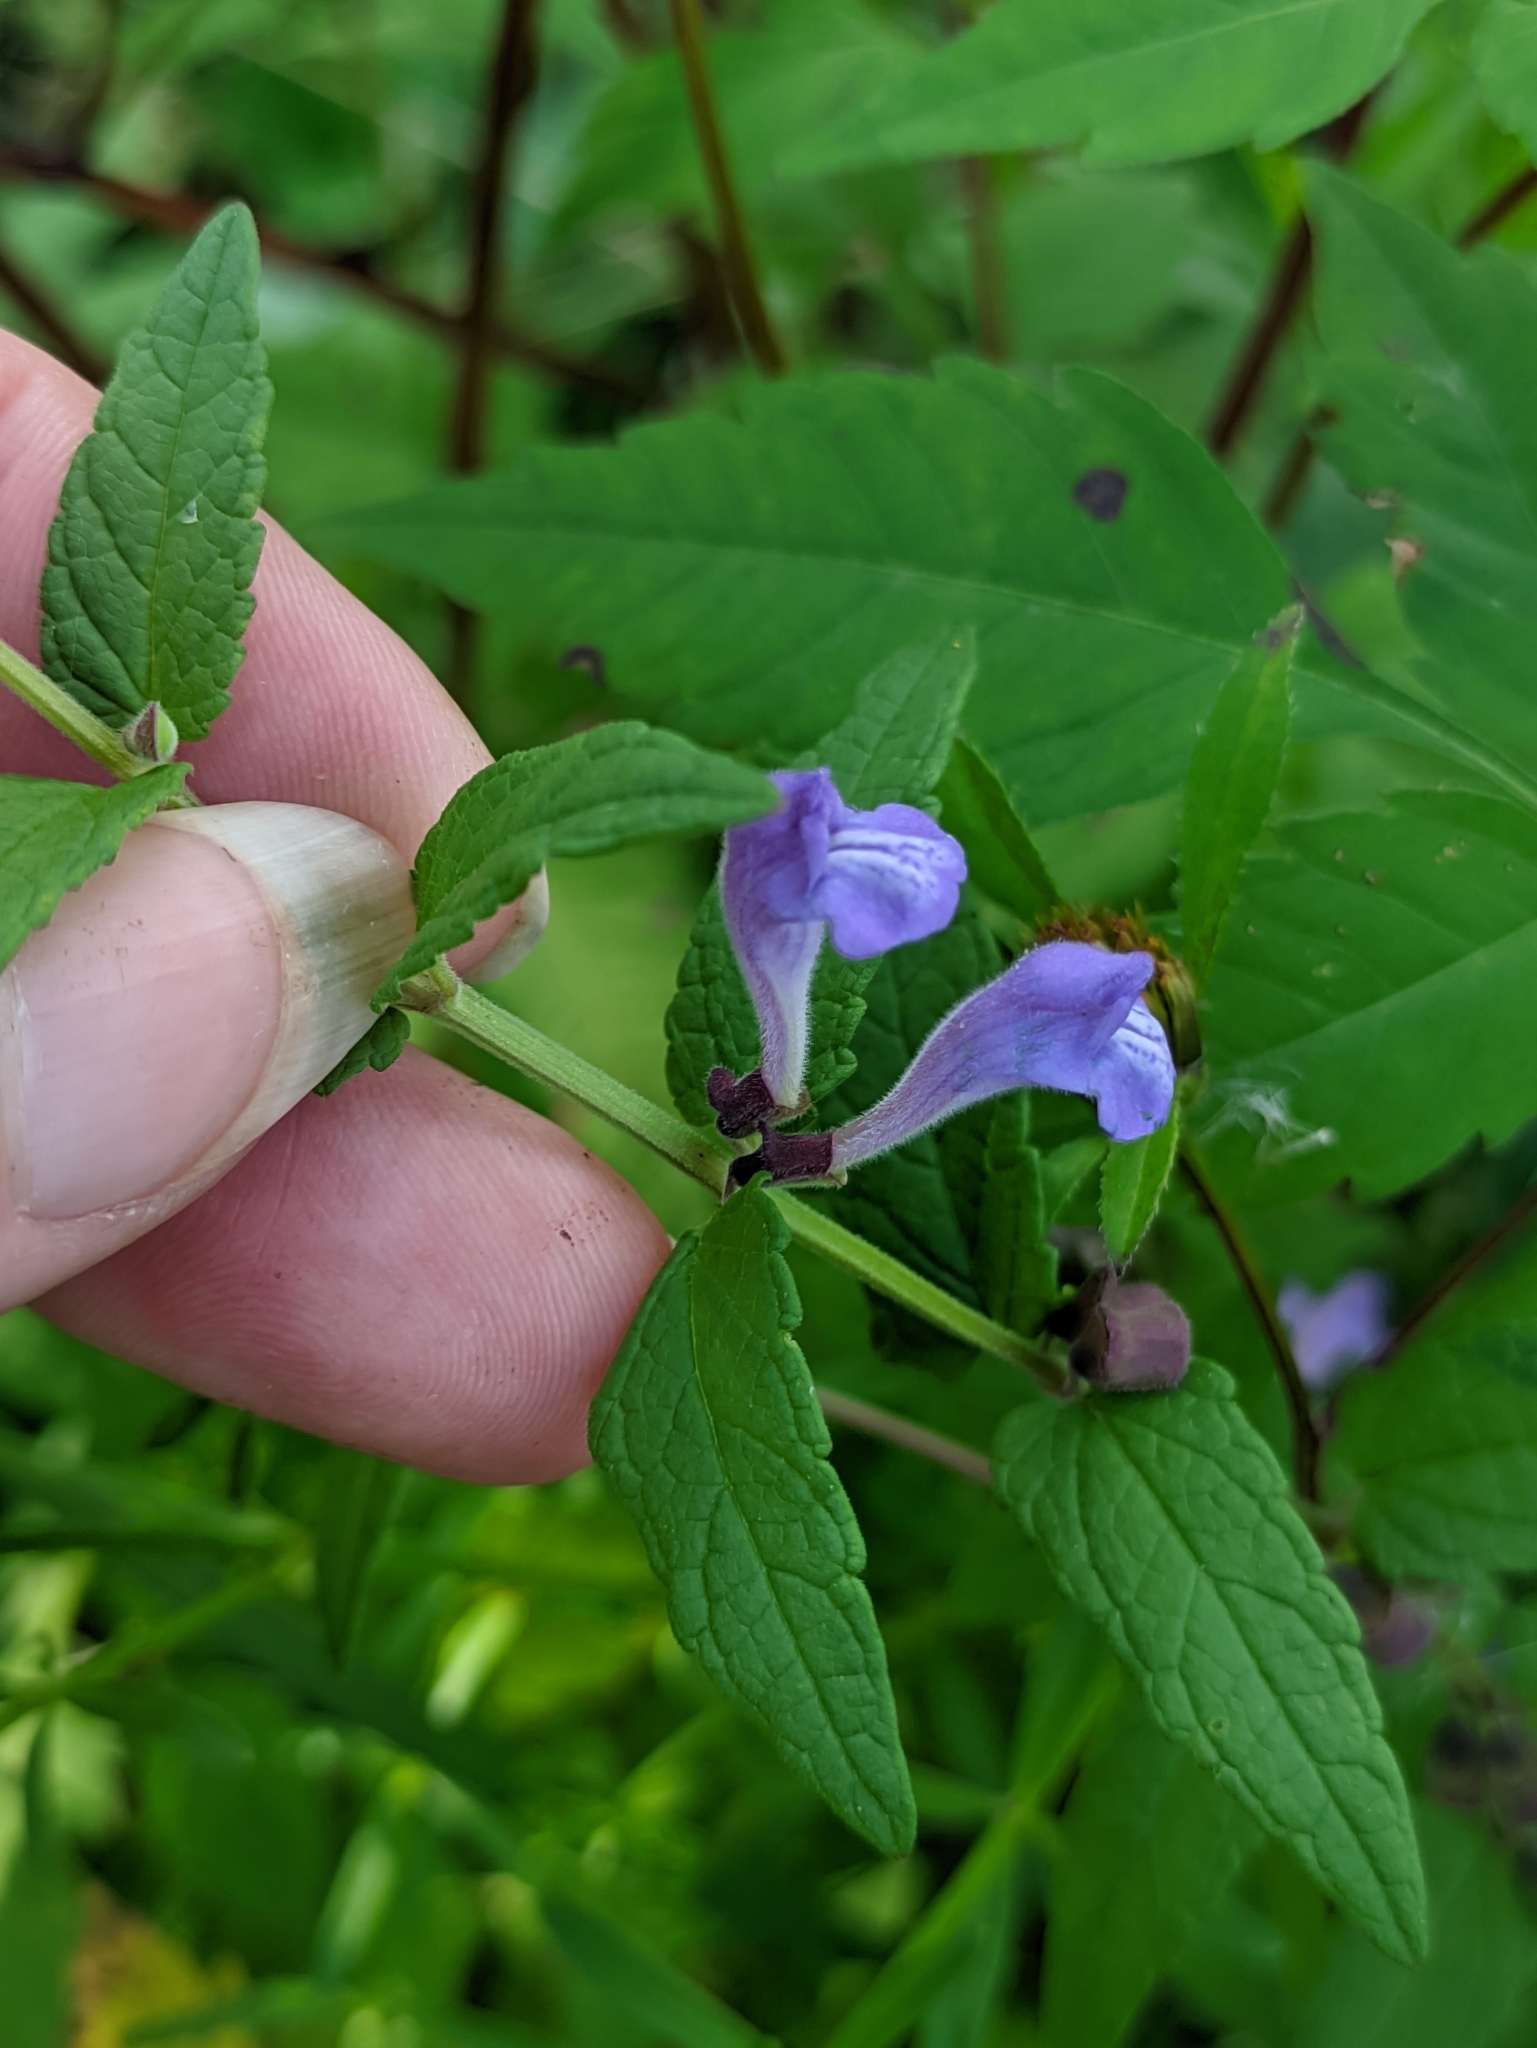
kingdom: Plantae
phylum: Tracheophyta
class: Magnoliopsida
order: Lamiales
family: Lamiaceae
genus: Scutellaria
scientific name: Scutellaria galericulata
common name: Skullcap
